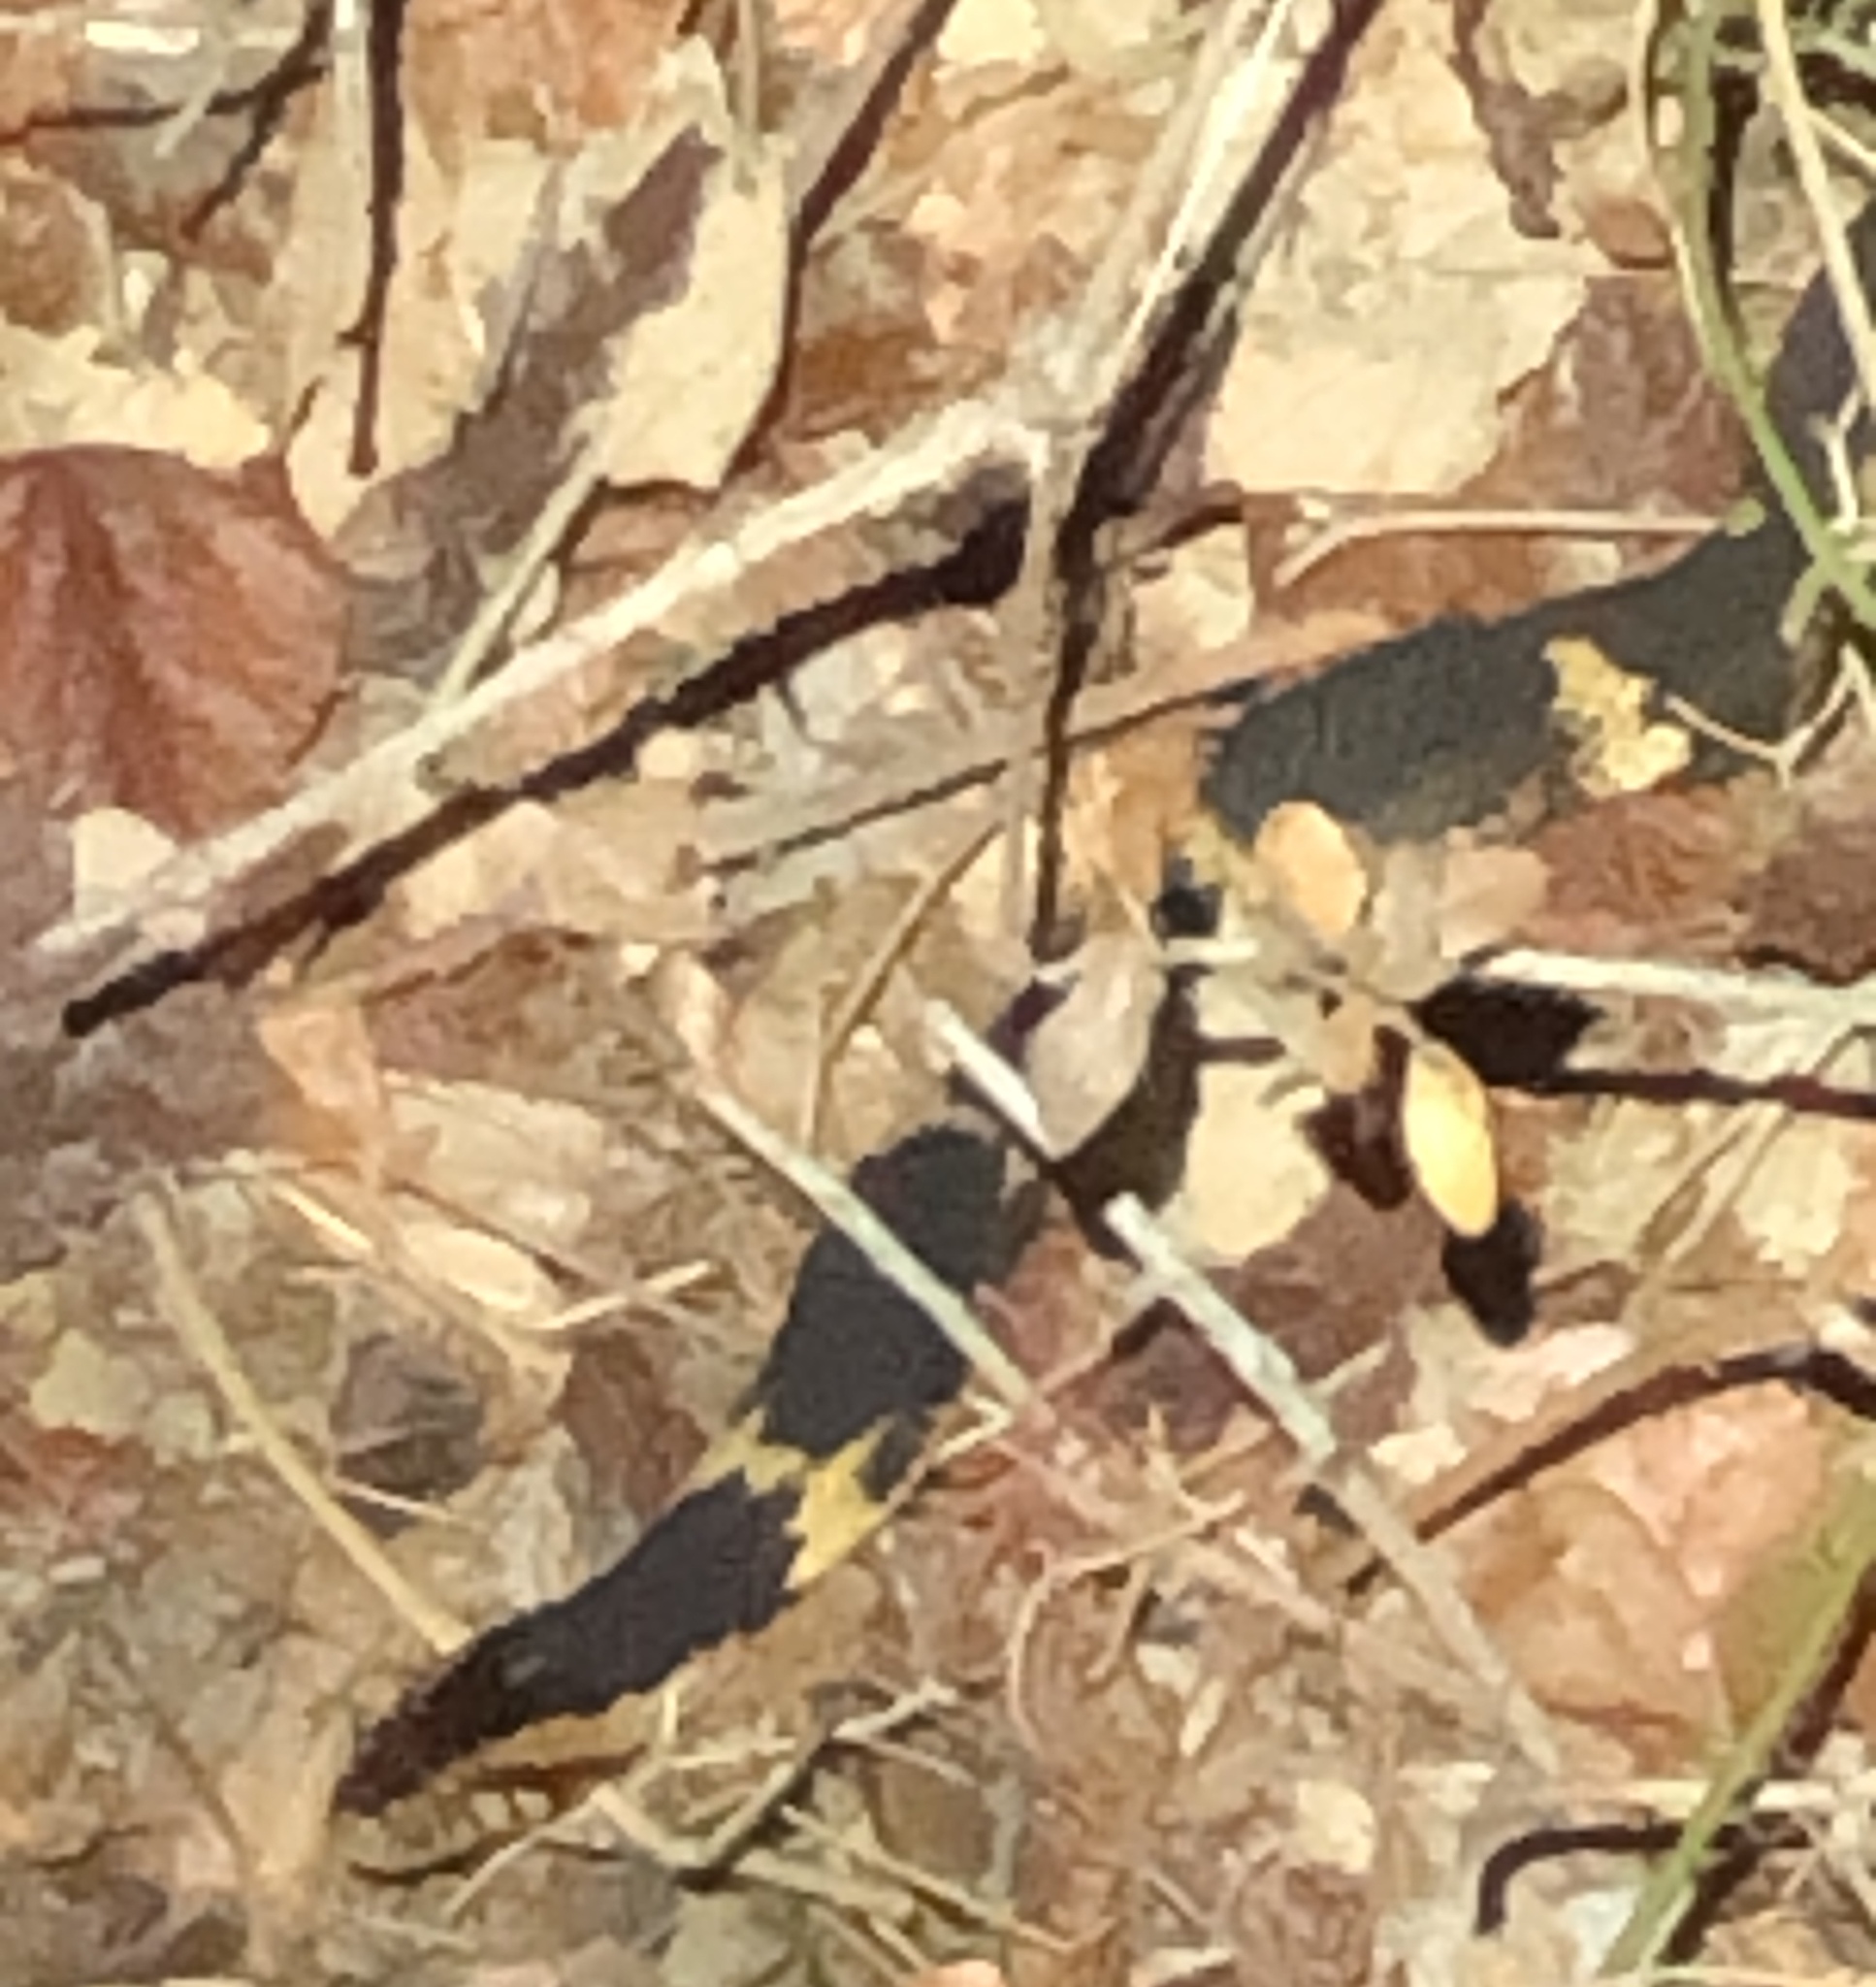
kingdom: Animalia
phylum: Chordata
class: Squamata
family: Colubridae
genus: Nerodia
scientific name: Nerodia fasciata
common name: Southern water snake
